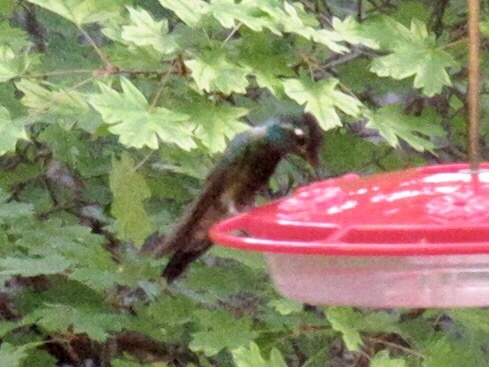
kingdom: Animalia
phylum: Chordata
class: Aves
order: Apodiformes
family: Trochilidae
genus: Eugenes
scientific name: Eugenes fulgens
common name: Magnificent hummingbird
